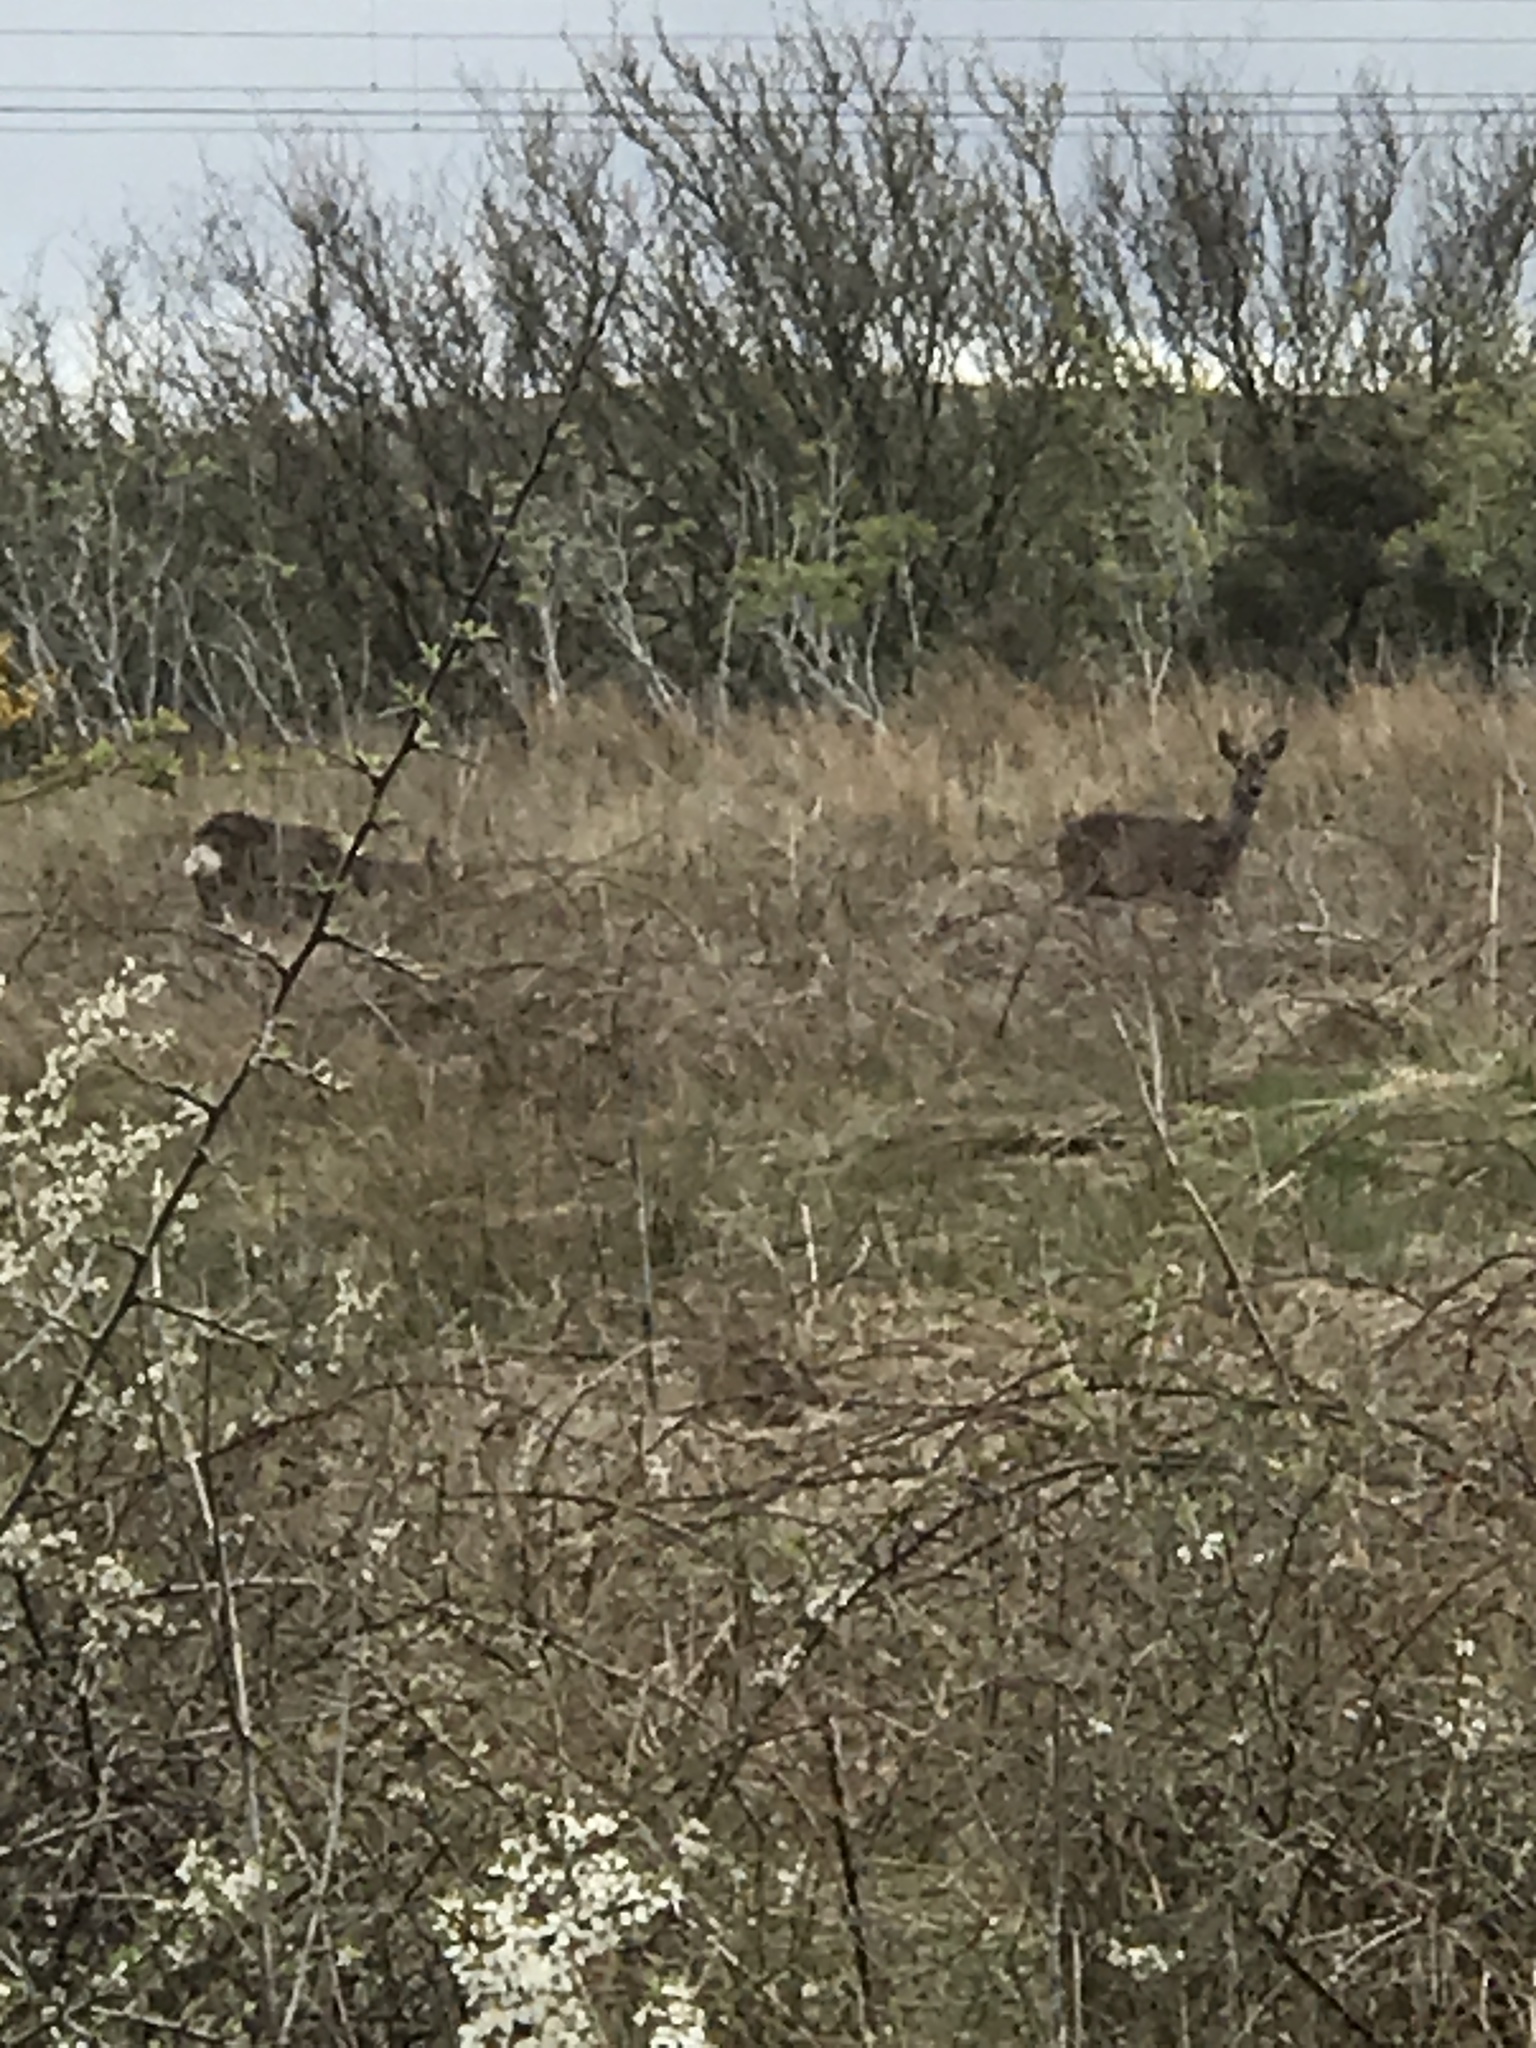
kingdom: Animalia
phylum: Chordata
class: Mammalia
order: Artiodactyla
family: Cervidae
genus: Capreolus
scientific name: Capreolus capreolus
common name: Western roe deer
